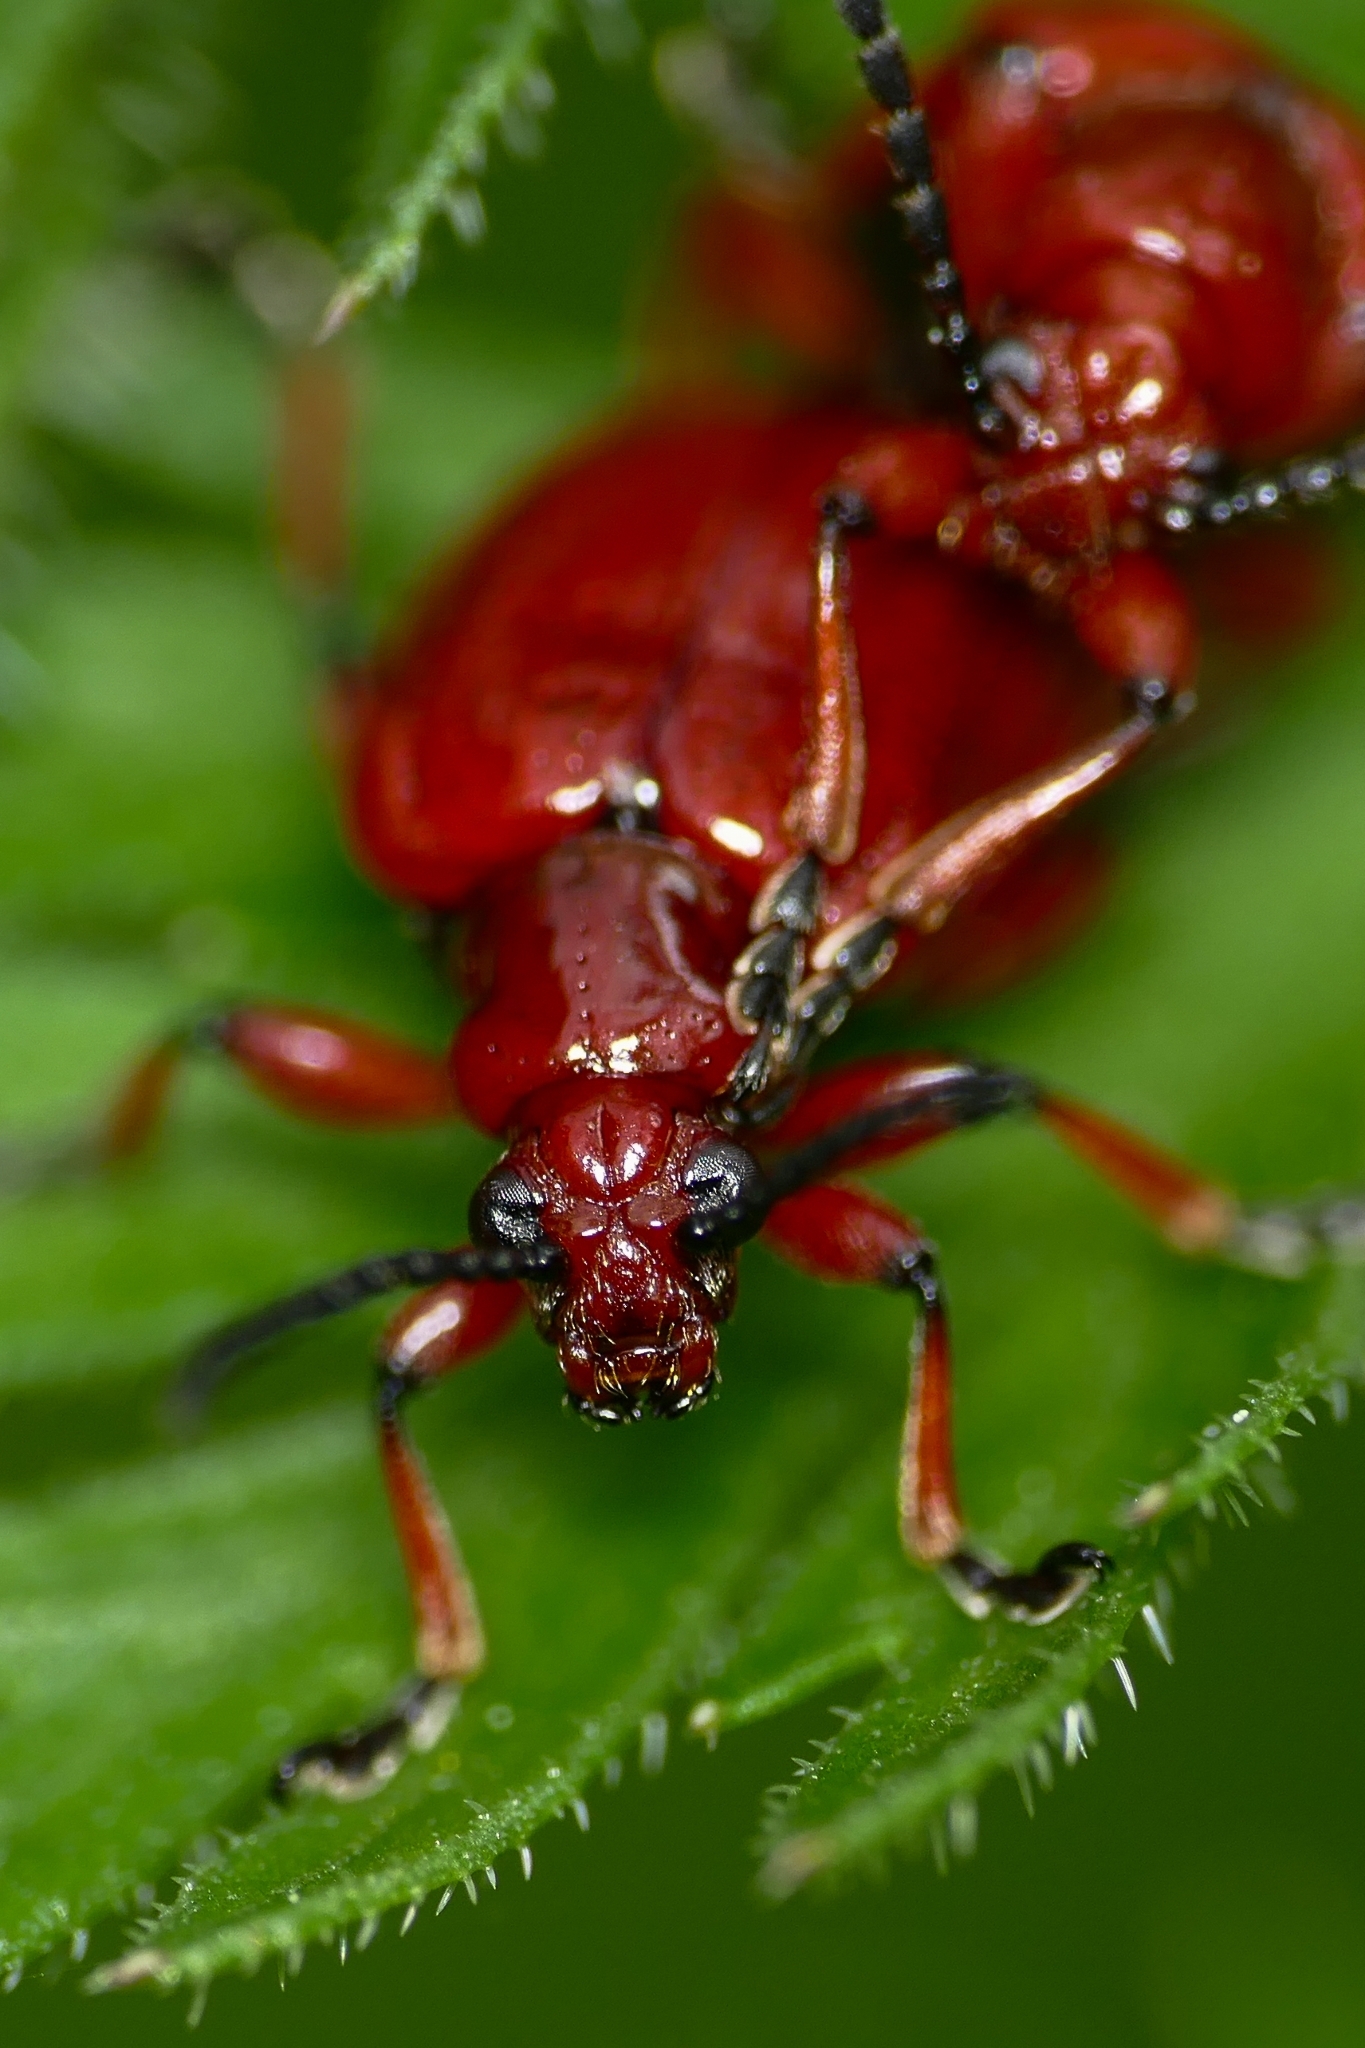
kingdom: Animalia
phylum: Arthropoda
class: Insecta
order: Coleoptera
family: Chrysomelidae
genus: Lilioceris
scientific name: Lilioceris merdigera
